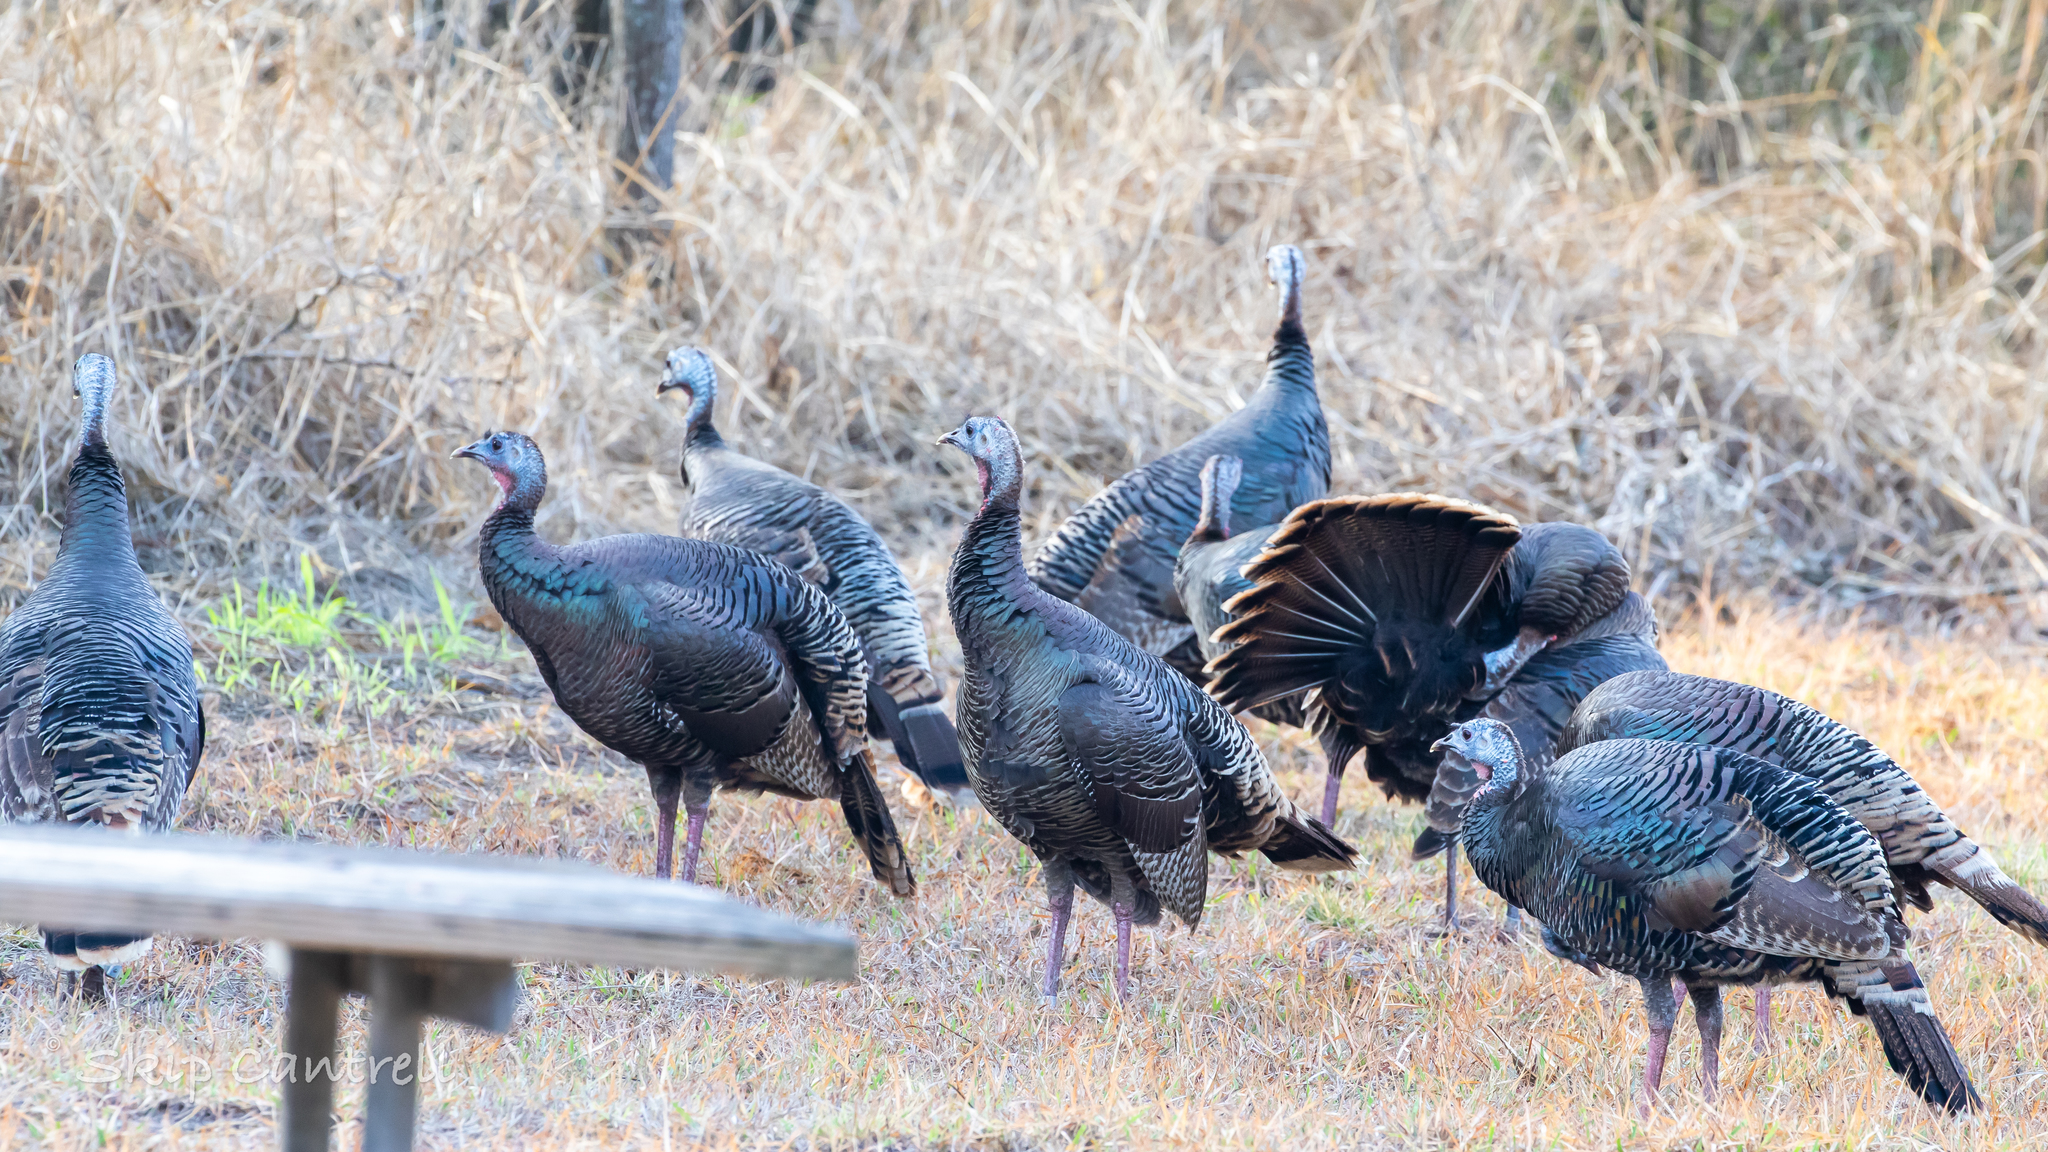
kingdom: Animalia
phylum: Chordata
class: Aves
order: Galliformes
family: Phasianidae
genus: Meleagris
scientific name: Meleagris gallopavo
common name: Wild turkey
